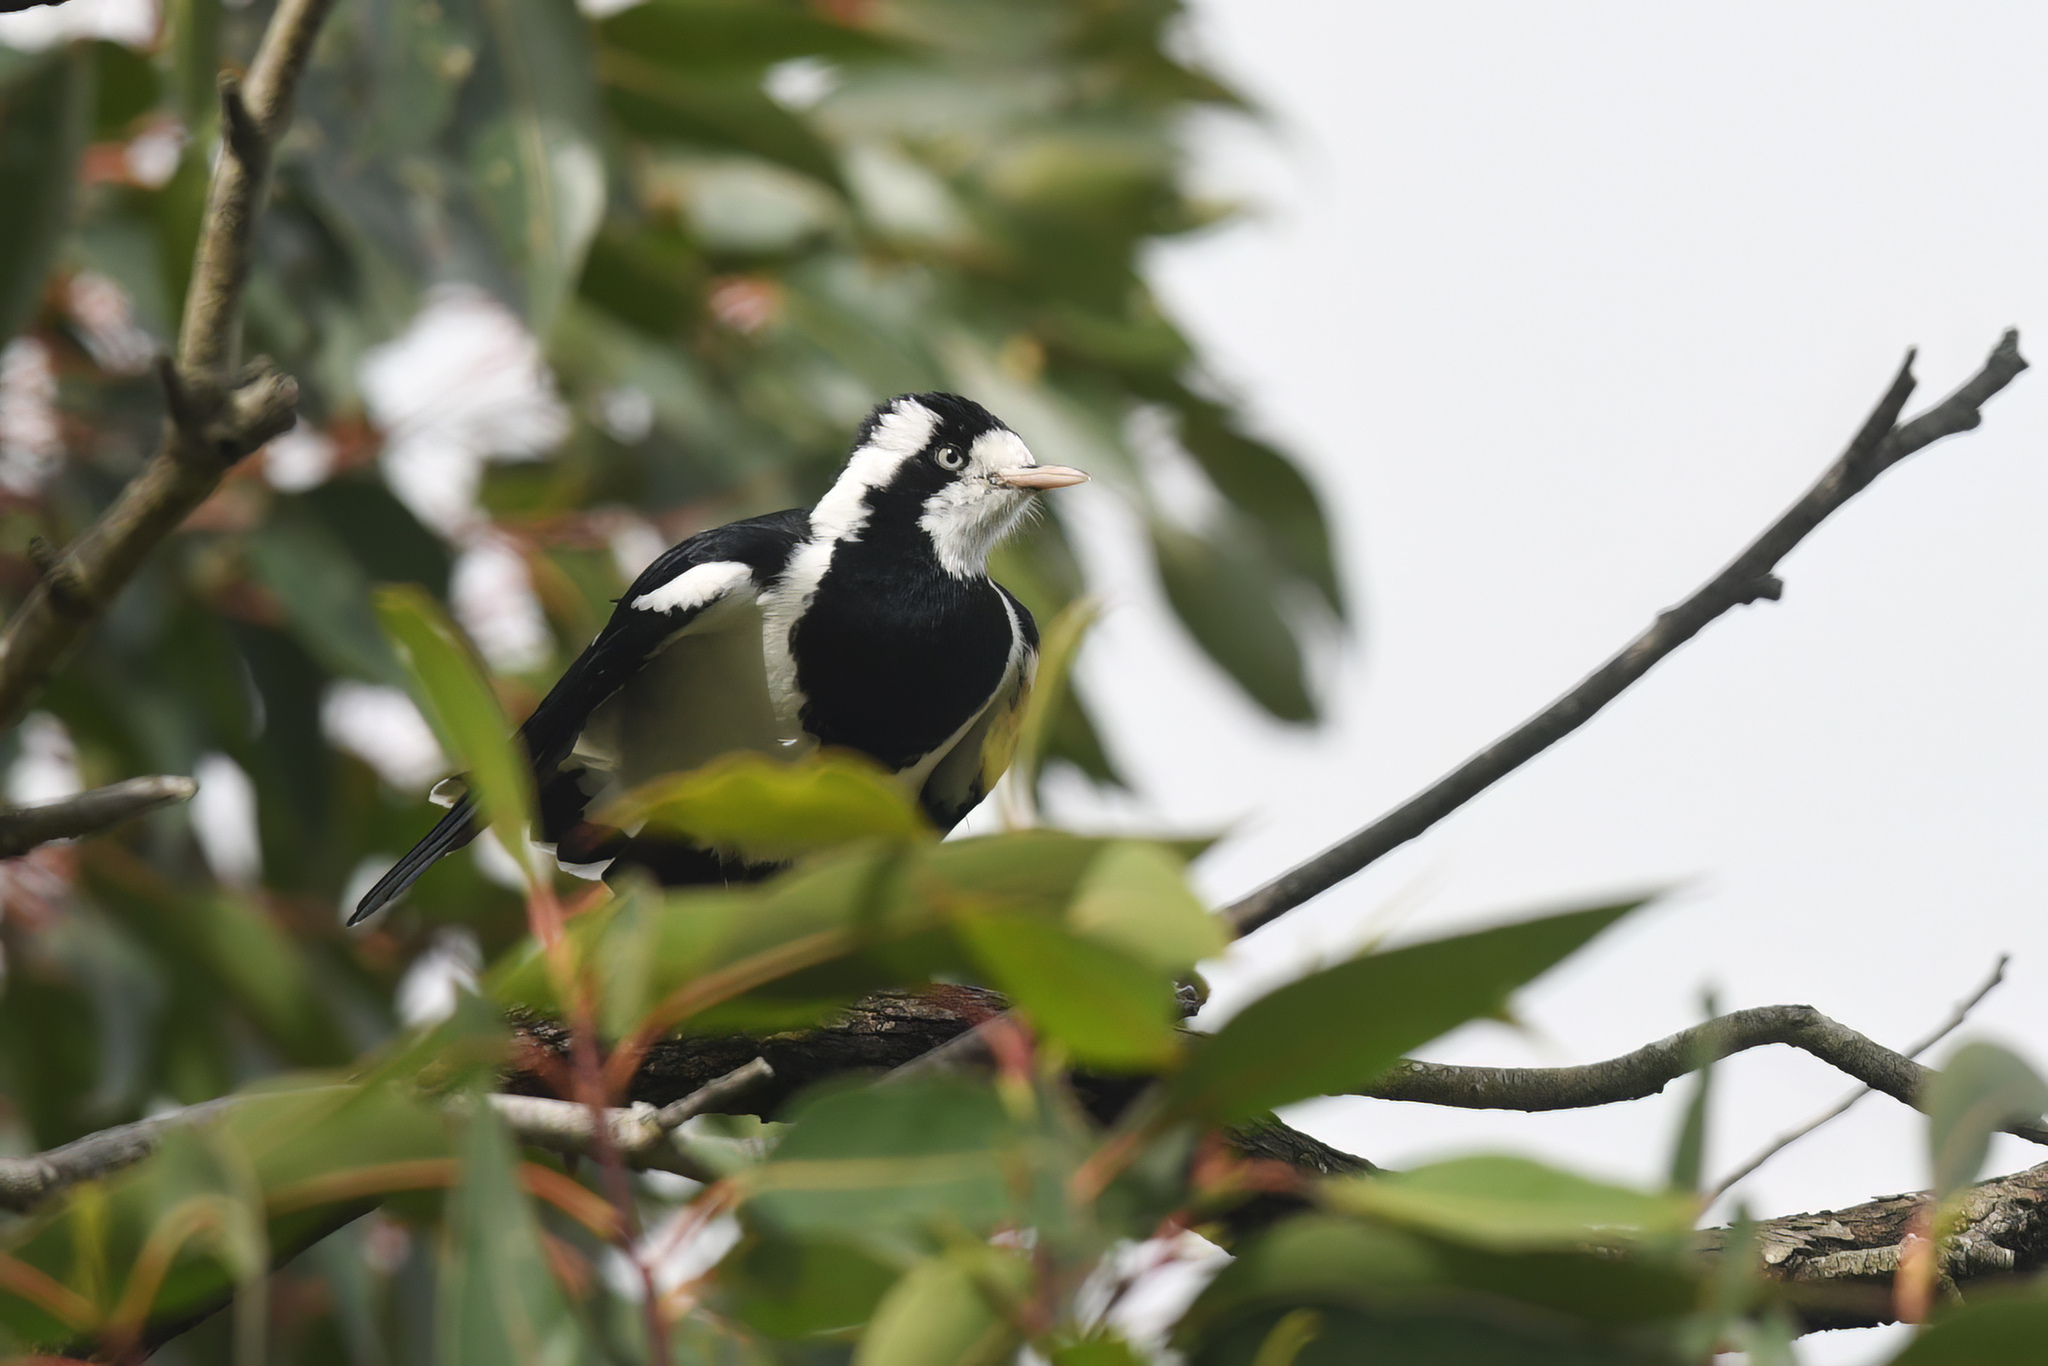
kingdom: Animalia
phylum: Chordata
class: Aves
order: Passeriformes
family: Monarchidae
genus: Grallina
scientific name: Grallina cyanoleuca
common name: Magpie-lark
